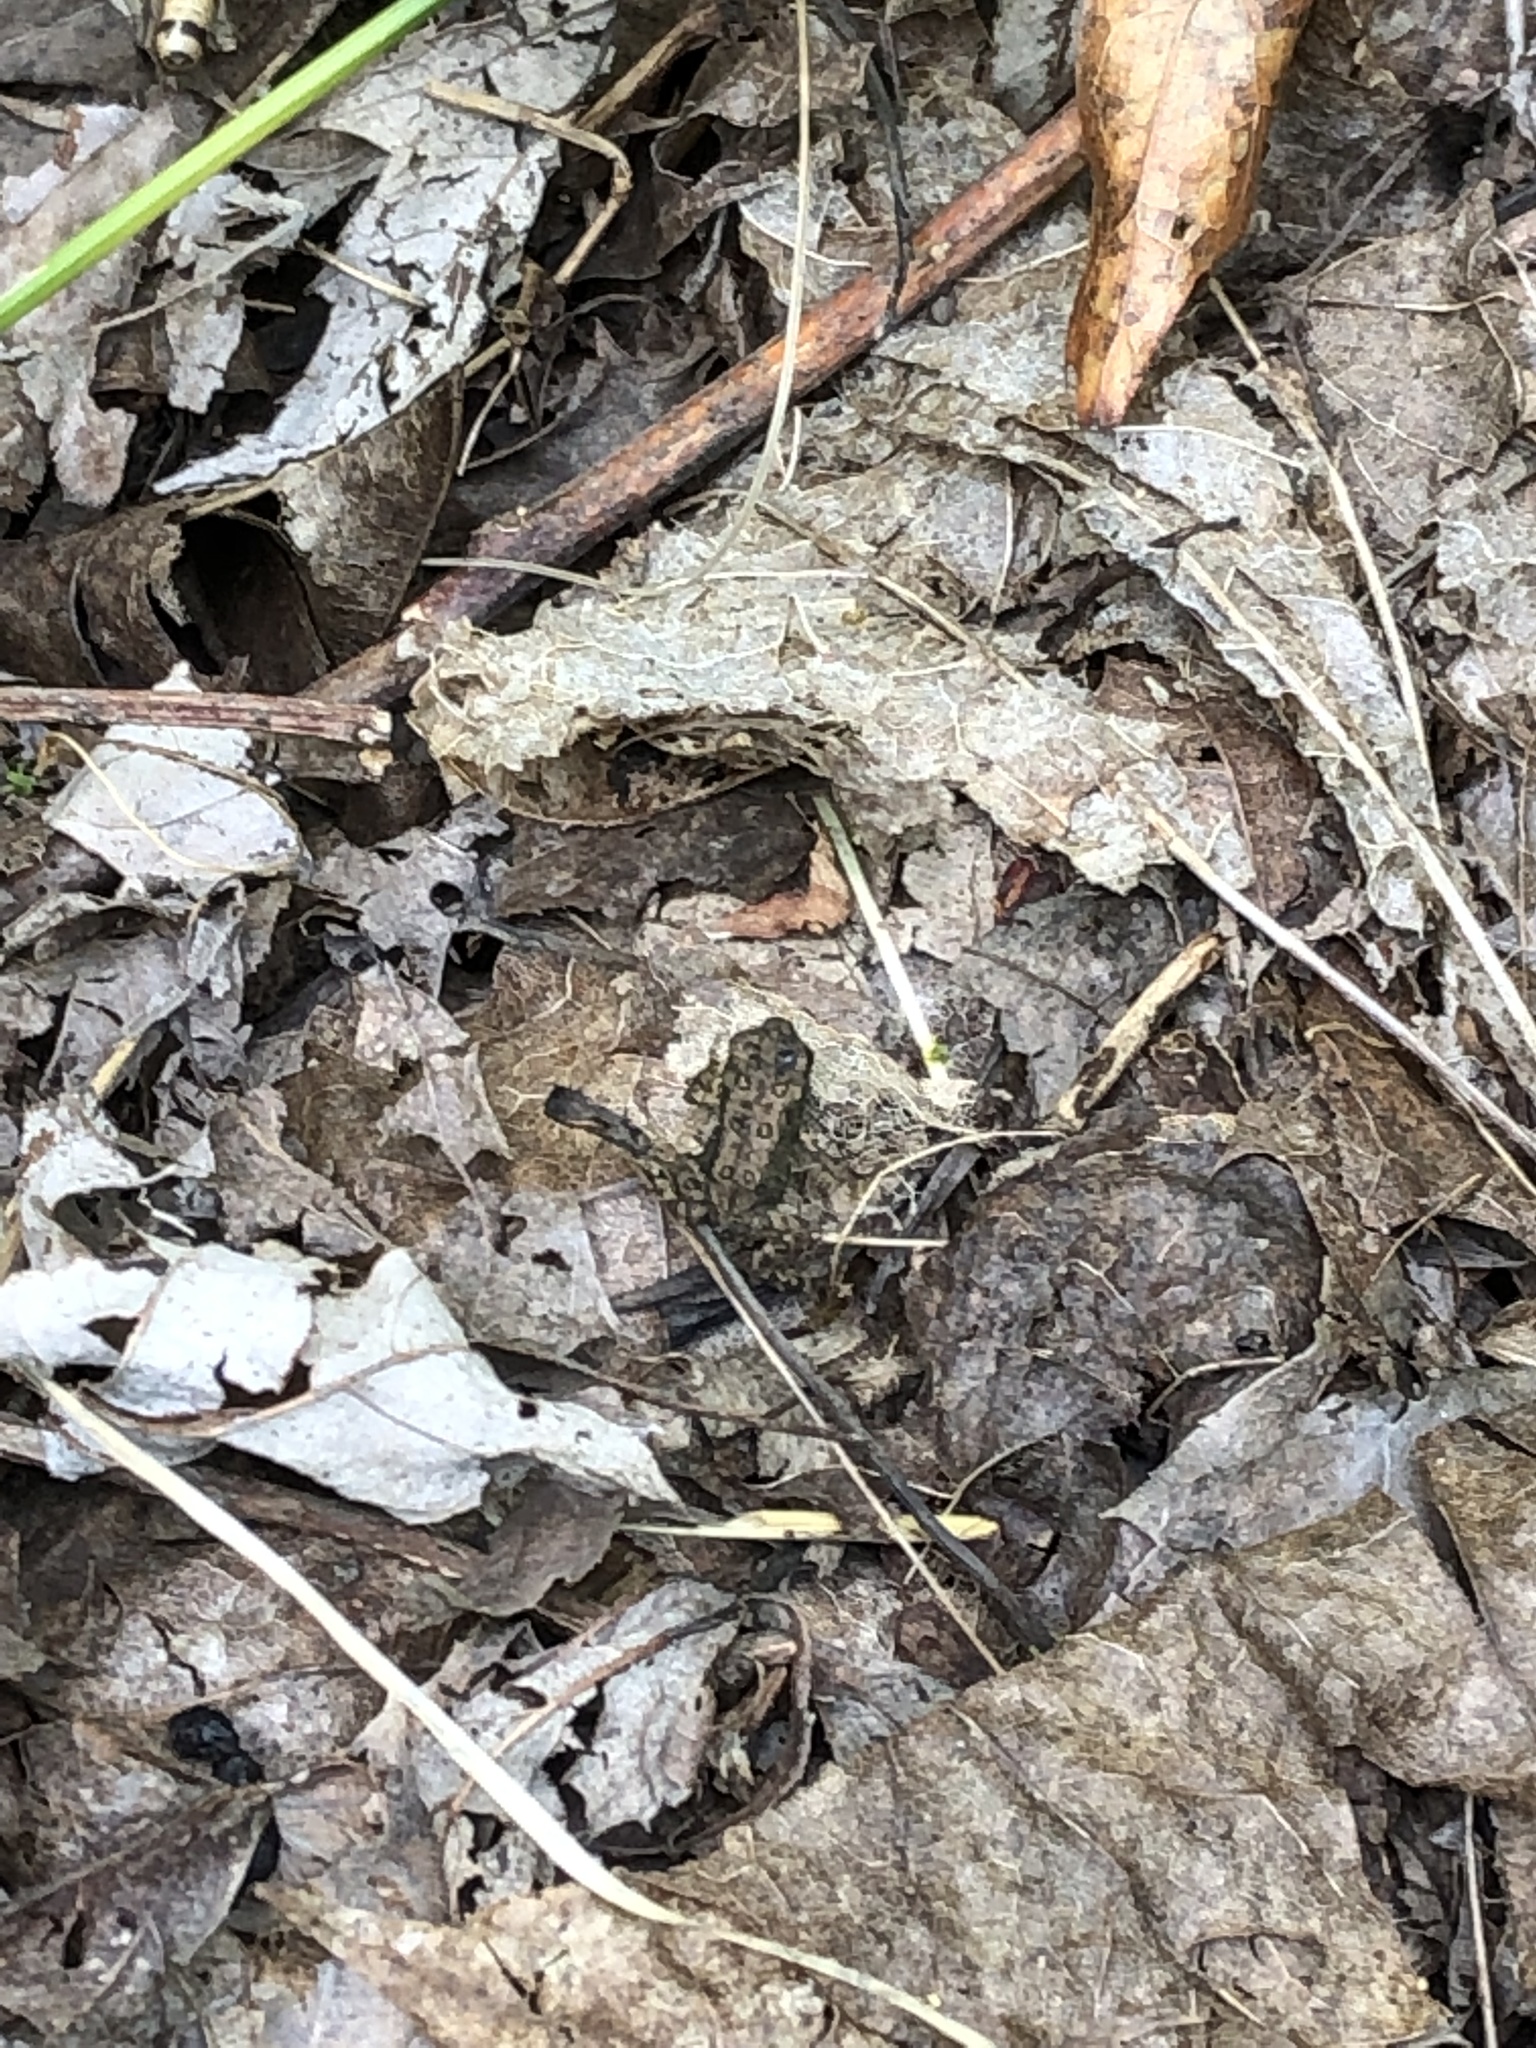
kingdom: Animalia
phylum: Chordata
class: Amphibia
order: Anura
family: Bufonidae
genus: Anaxyrus
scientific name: Anaxyrus americanus
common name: American toad
